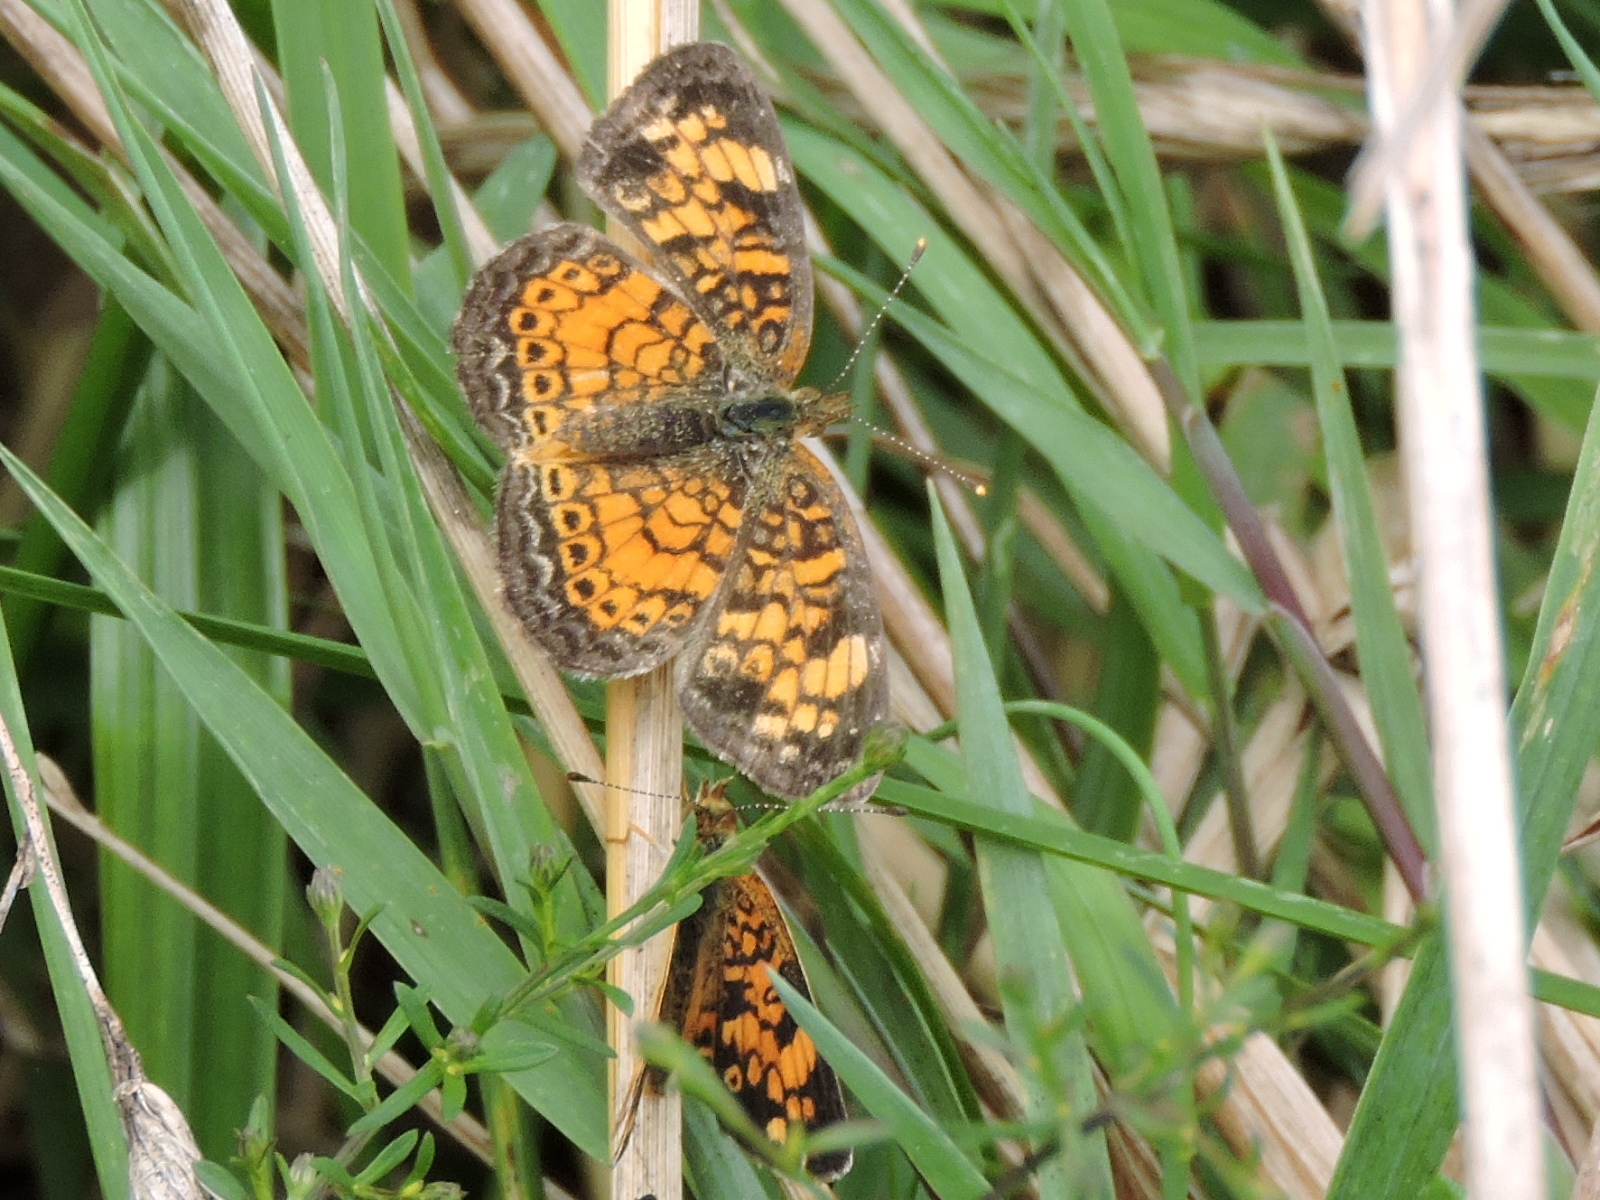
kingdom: Animalia
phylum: Arthropoda
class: Insecta
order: Lepidoptera
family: Nymphalidae
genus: Phyciodes
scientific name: Phyciodes tharos
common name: Pearl crescent
